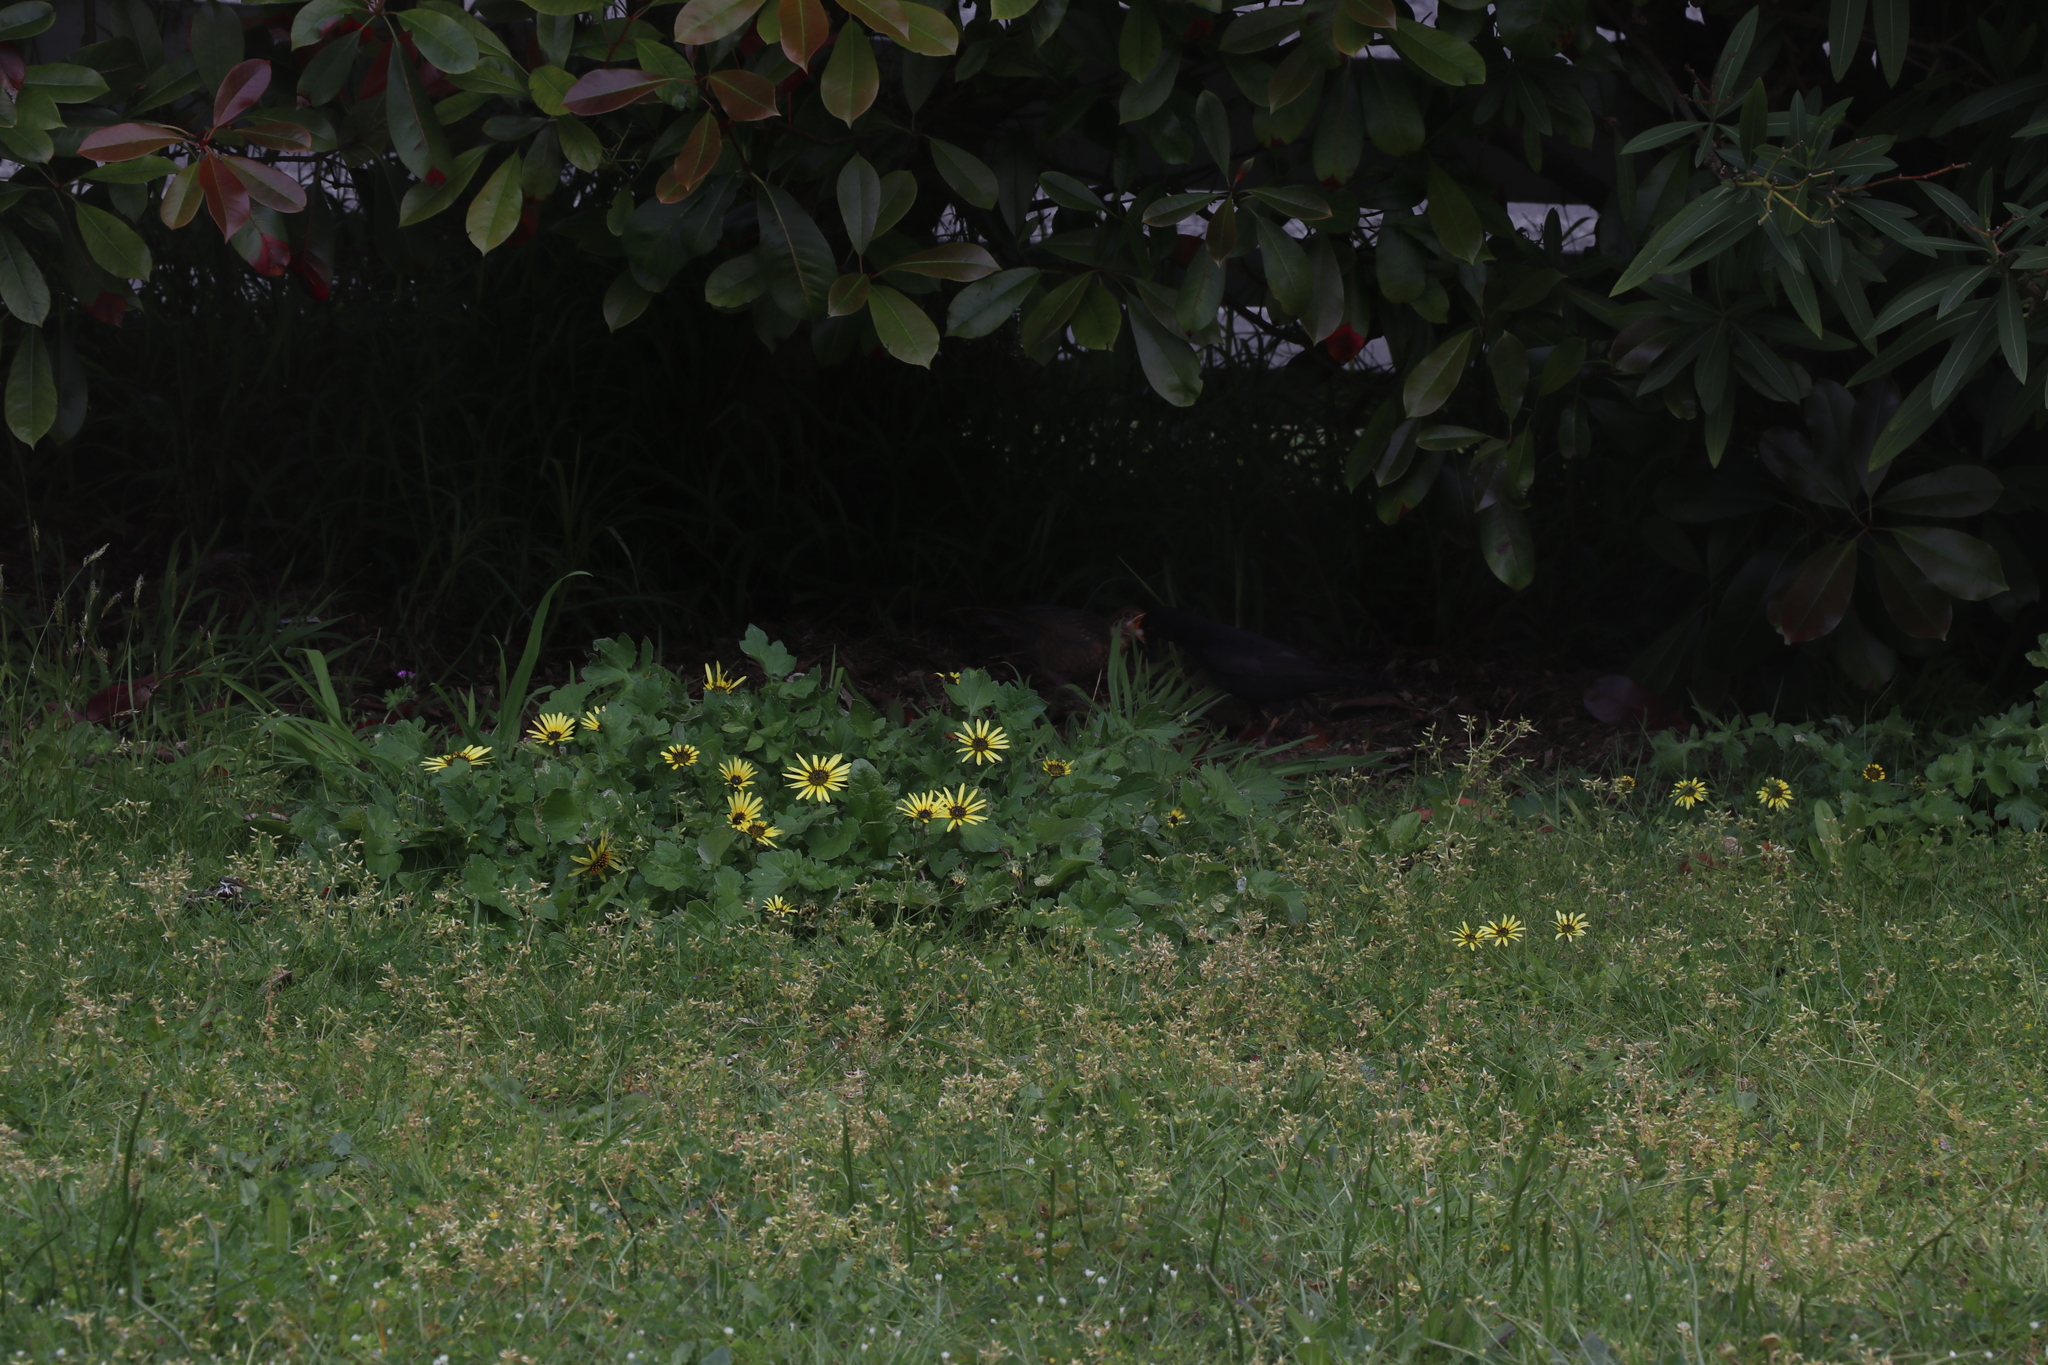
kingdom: Animalia
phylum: Chordata
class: Aves
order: Passeriformes
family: Turdidae
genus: Turdus
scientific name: Turdus merula
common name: Common blackbird
